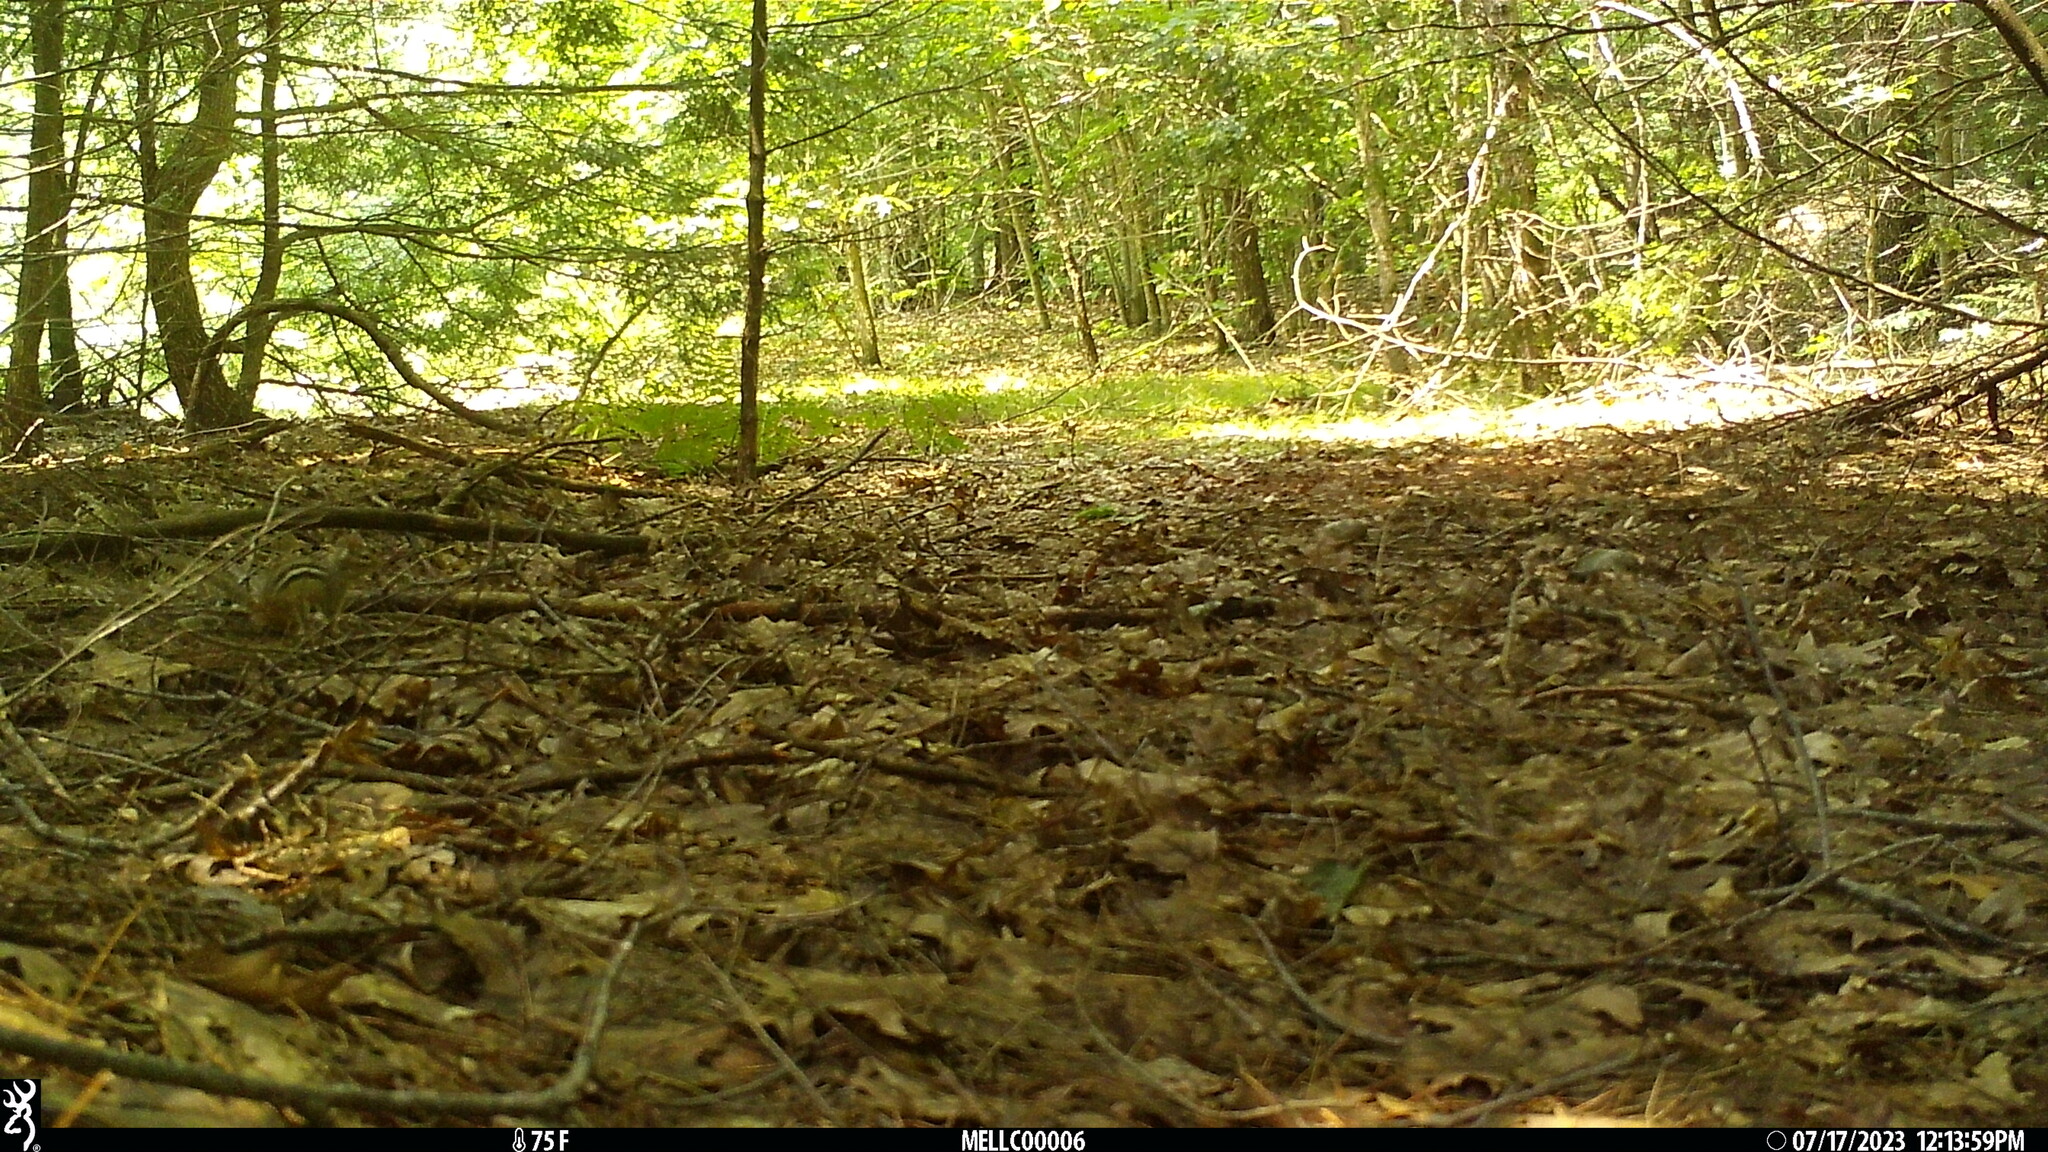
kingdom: Animalia
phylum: Chordata
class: Mammalia
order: Rodentia
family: Sciuridae
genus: Tamias
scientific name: Tamias striatus
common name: Eastern chipmunk
